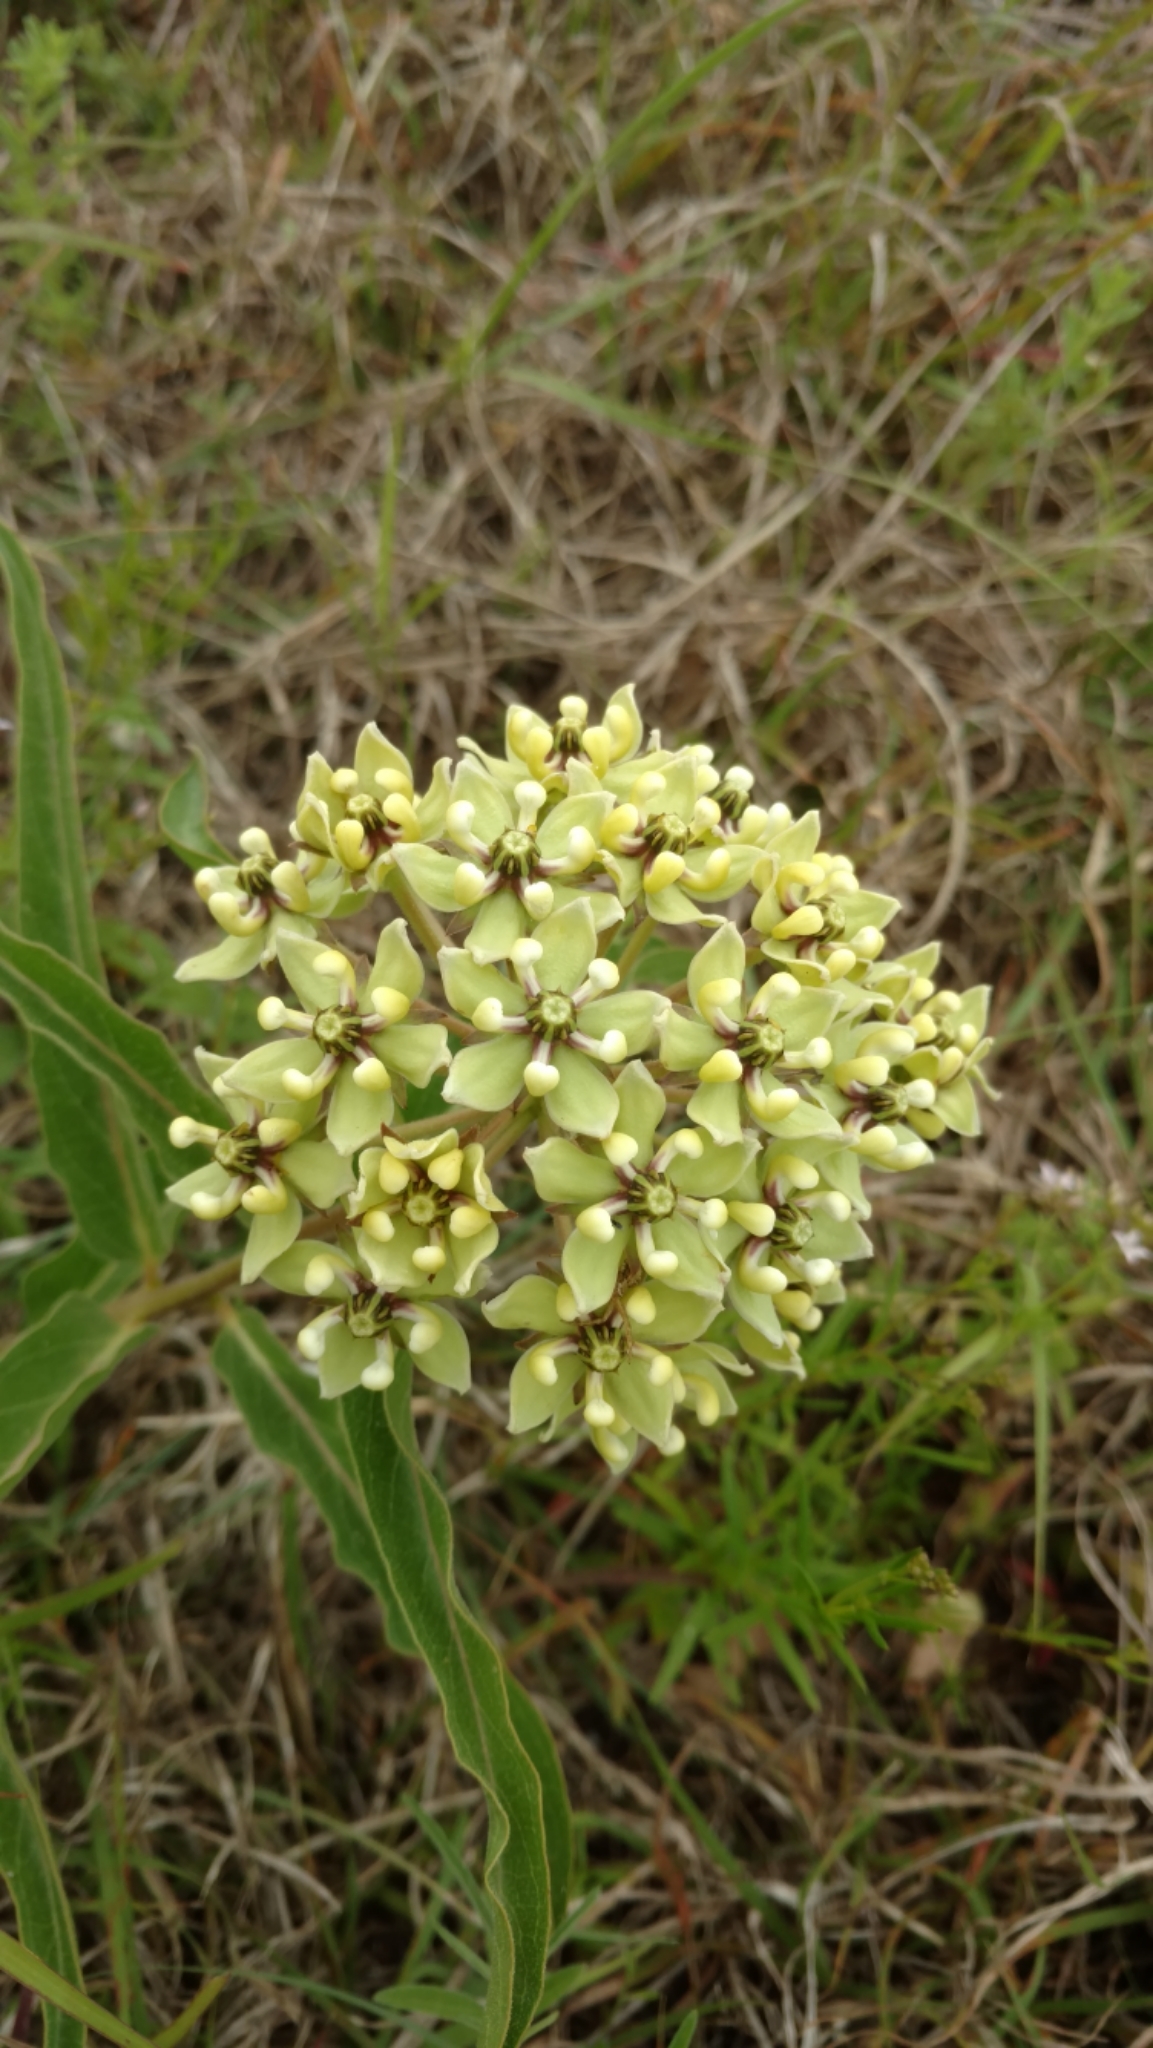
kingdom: Plantae
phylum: Tracheophyta
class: Magnoliopsida
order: Gentianales
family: Apocynaceae
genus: Asclepias
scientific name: Asclepias asperula
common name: Antelope horns
